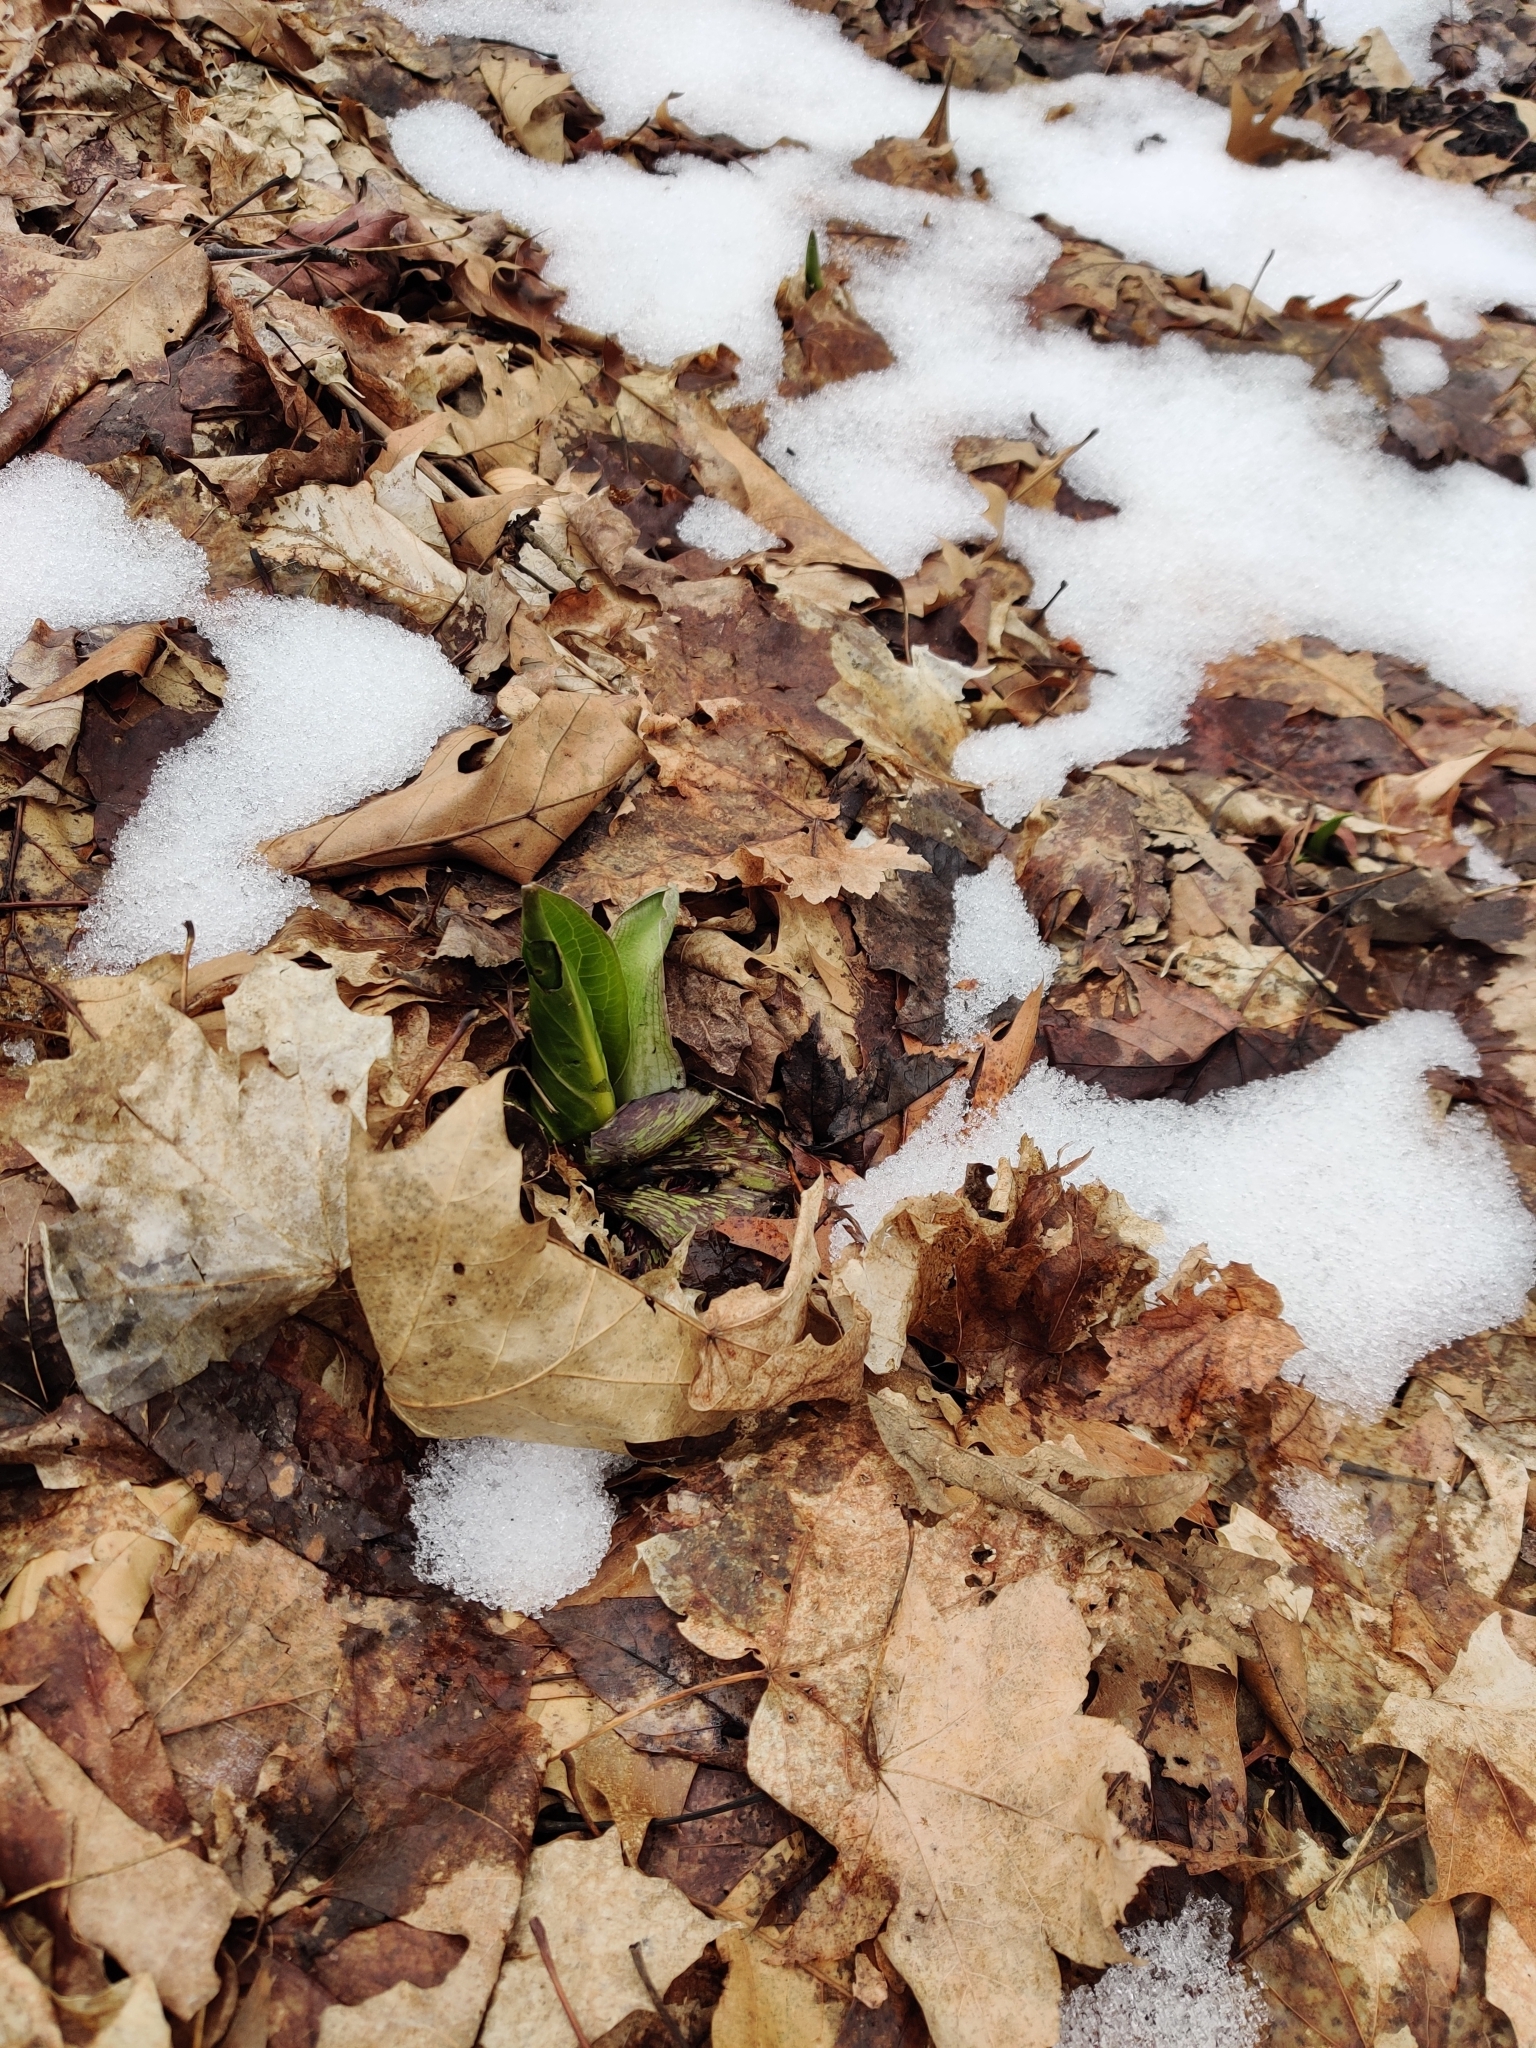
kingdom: Plantae
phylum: Tracheophyta
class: Liliopsida
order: Alismatales
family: Araceae
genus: Symplocarpus
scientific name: Symplocarpus foetidus
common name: Eastern skunk cabbage
